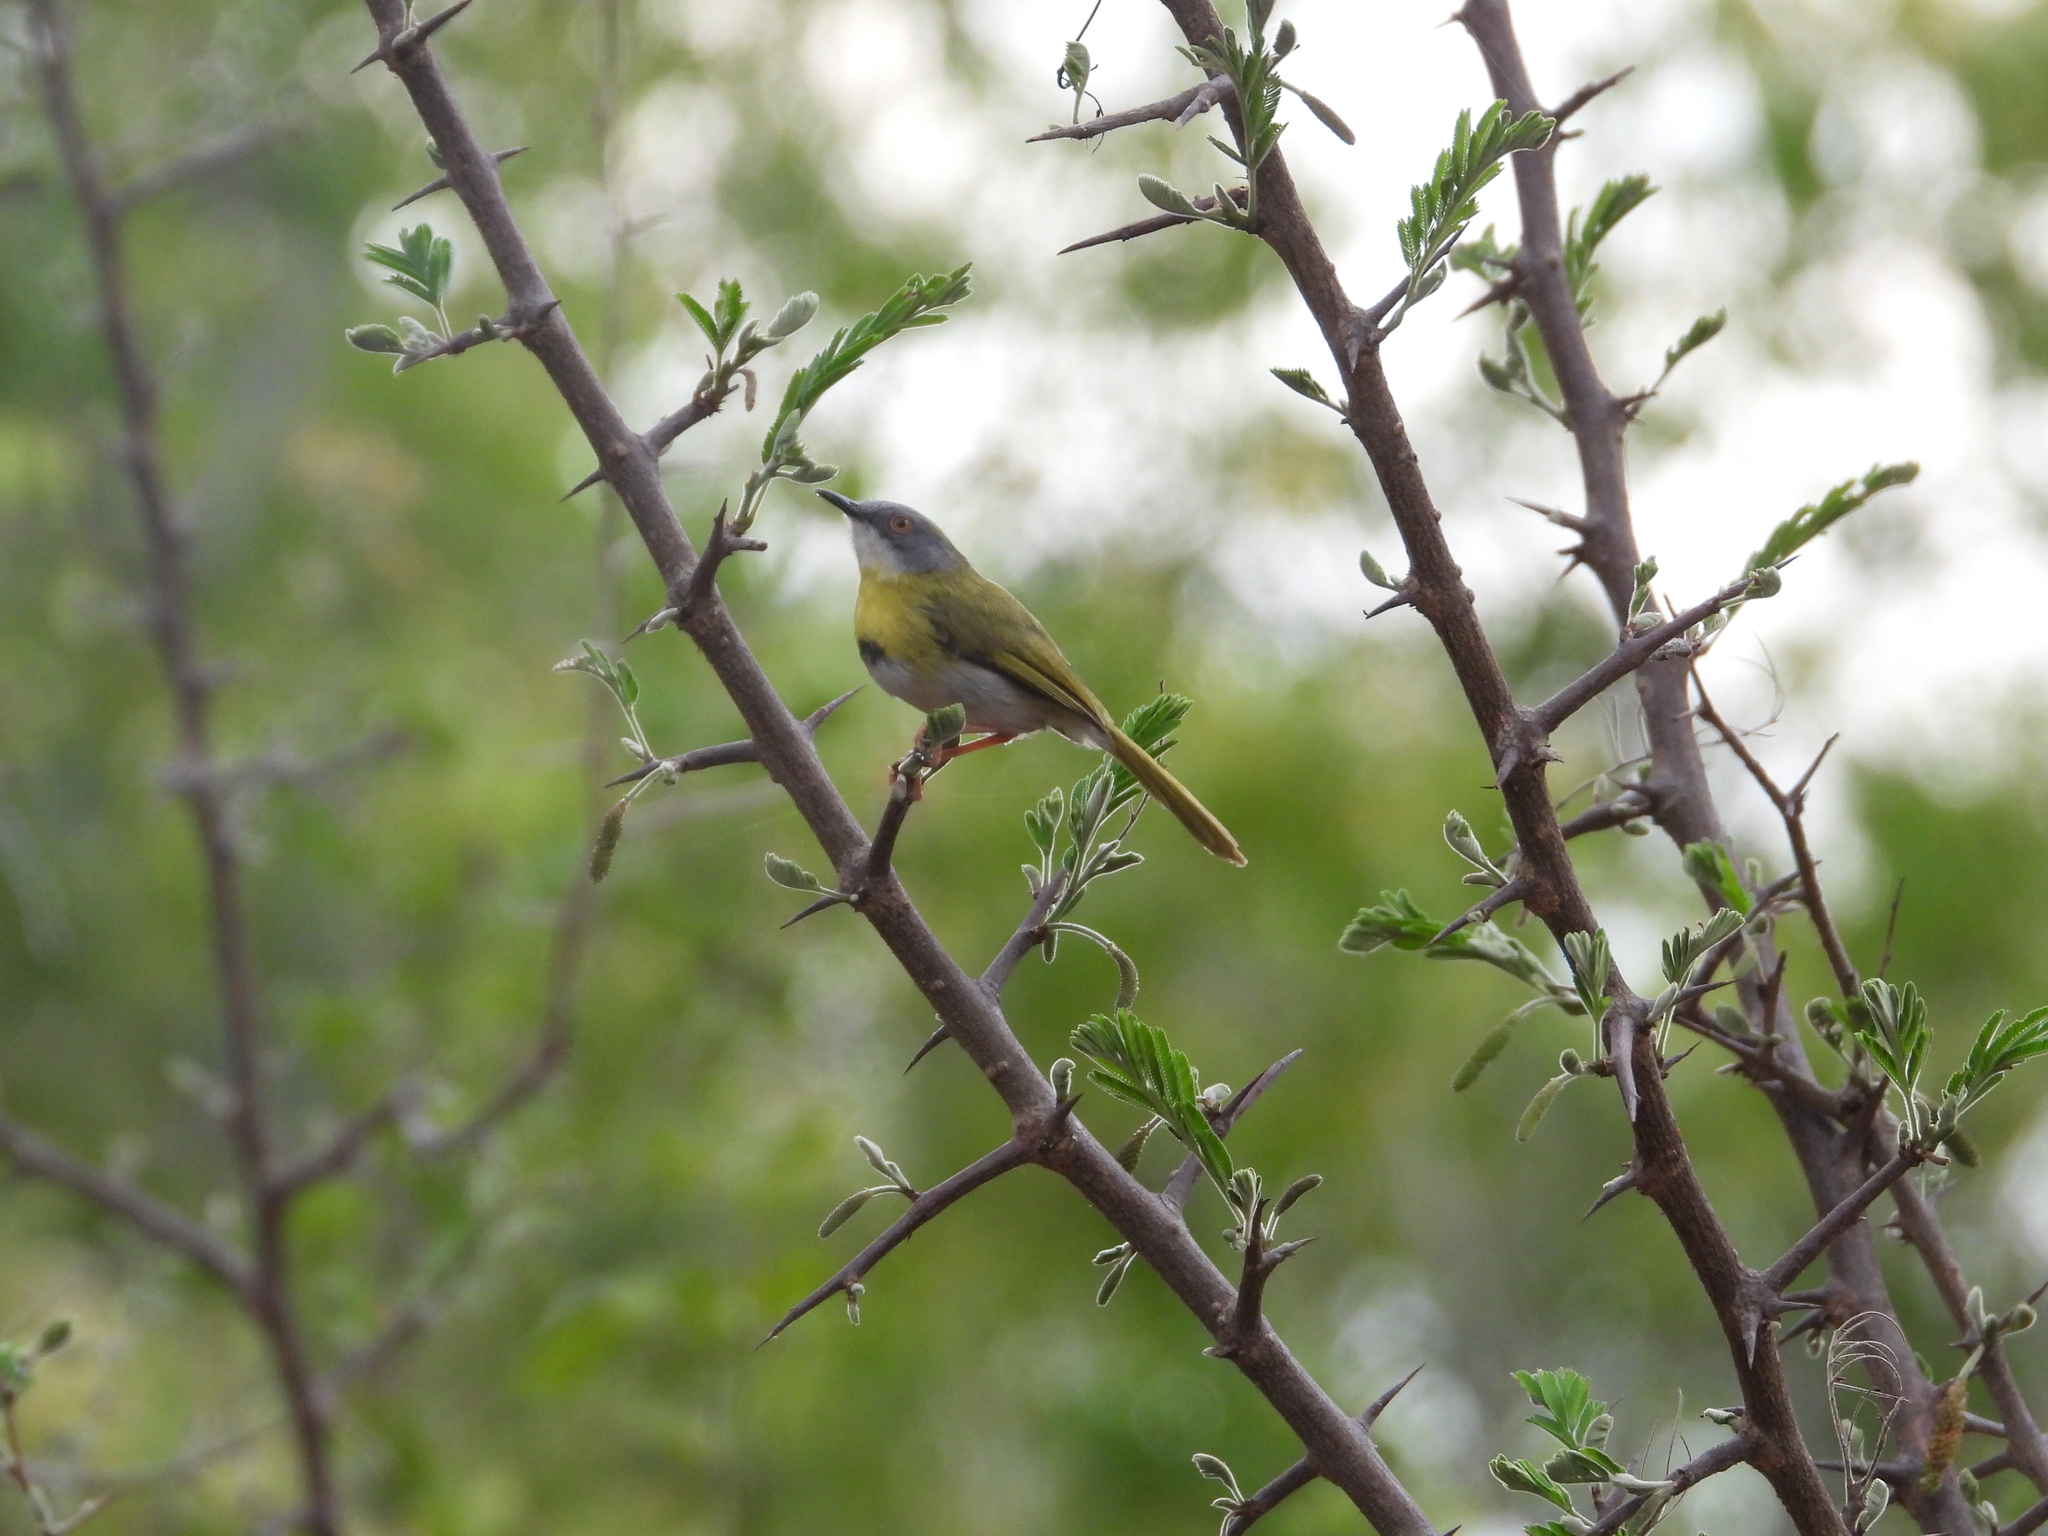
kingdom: Animalia
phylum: Chordata
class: Aves
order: Passeriformes
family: Cisticolidae
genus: Apalis
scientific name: Apalis flavida
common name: Yellow-breasted apalis
